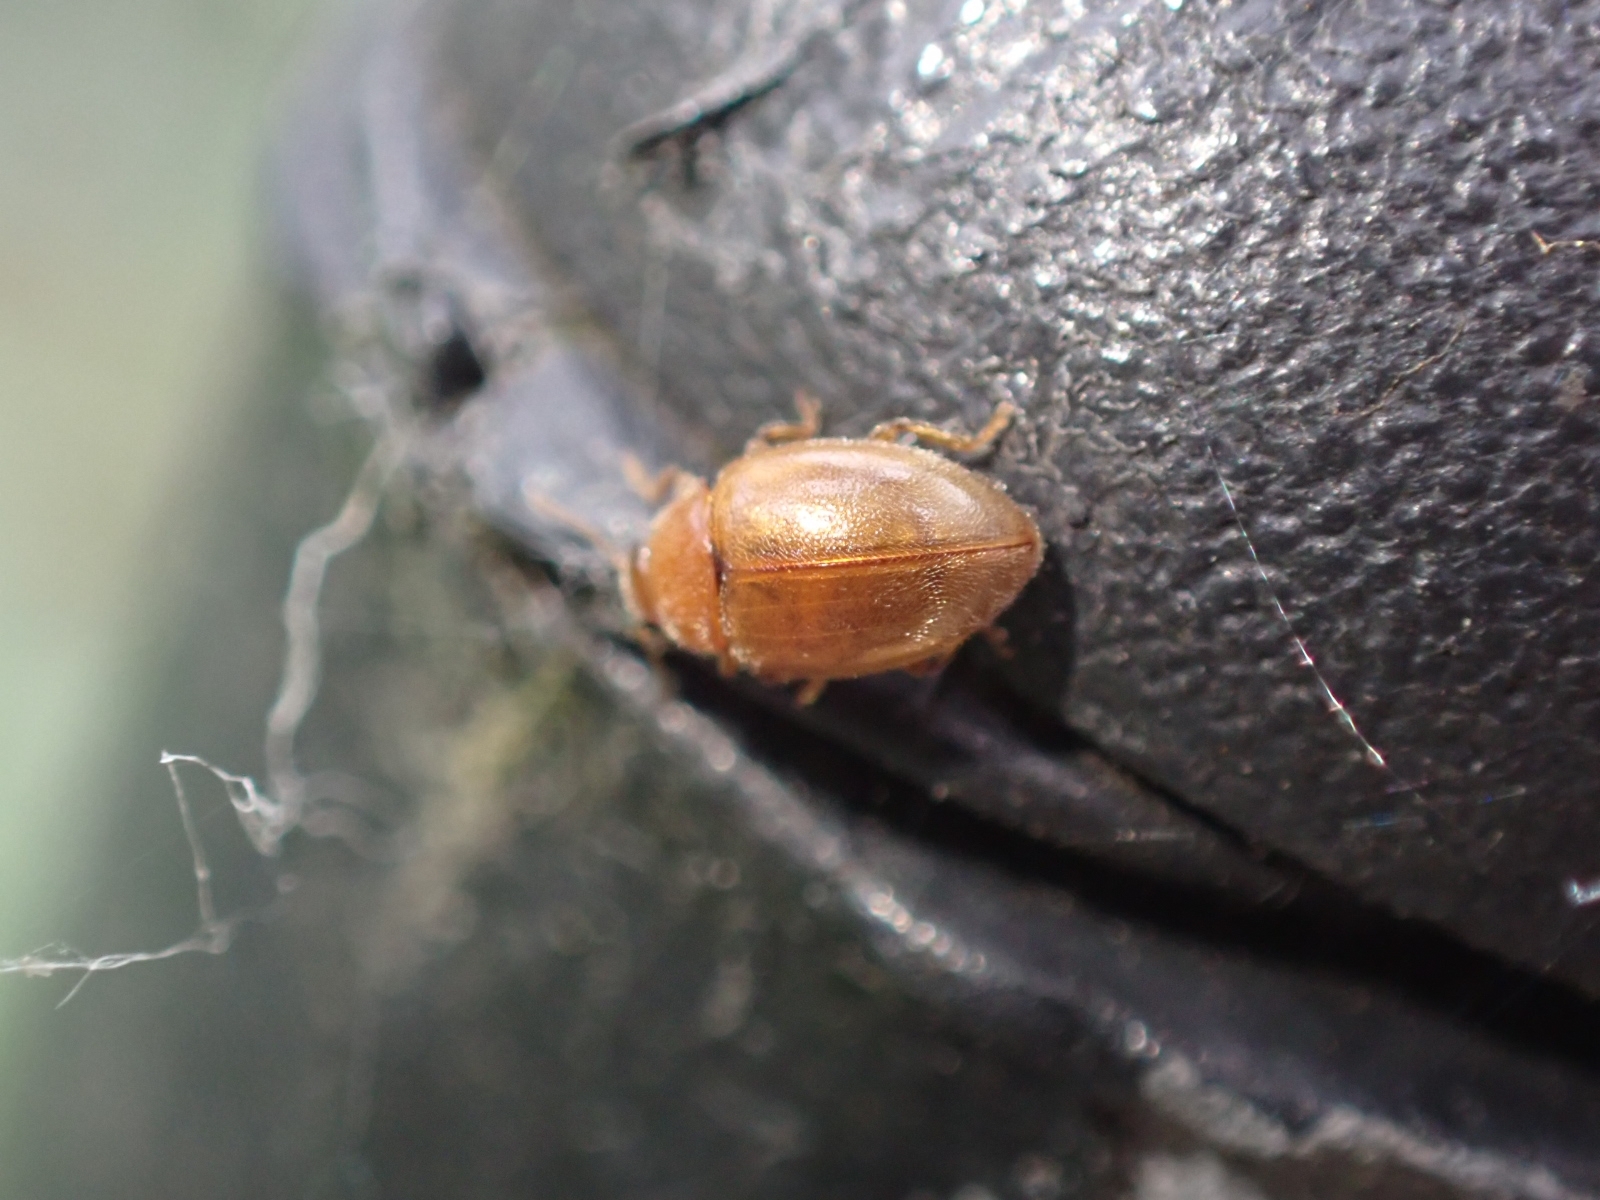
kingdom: Animalia
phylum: Arthropoda
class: Insecta
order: Coleoptera
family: Coccinellidae
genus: Rhyzobius
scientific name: Rhyzobius litura
